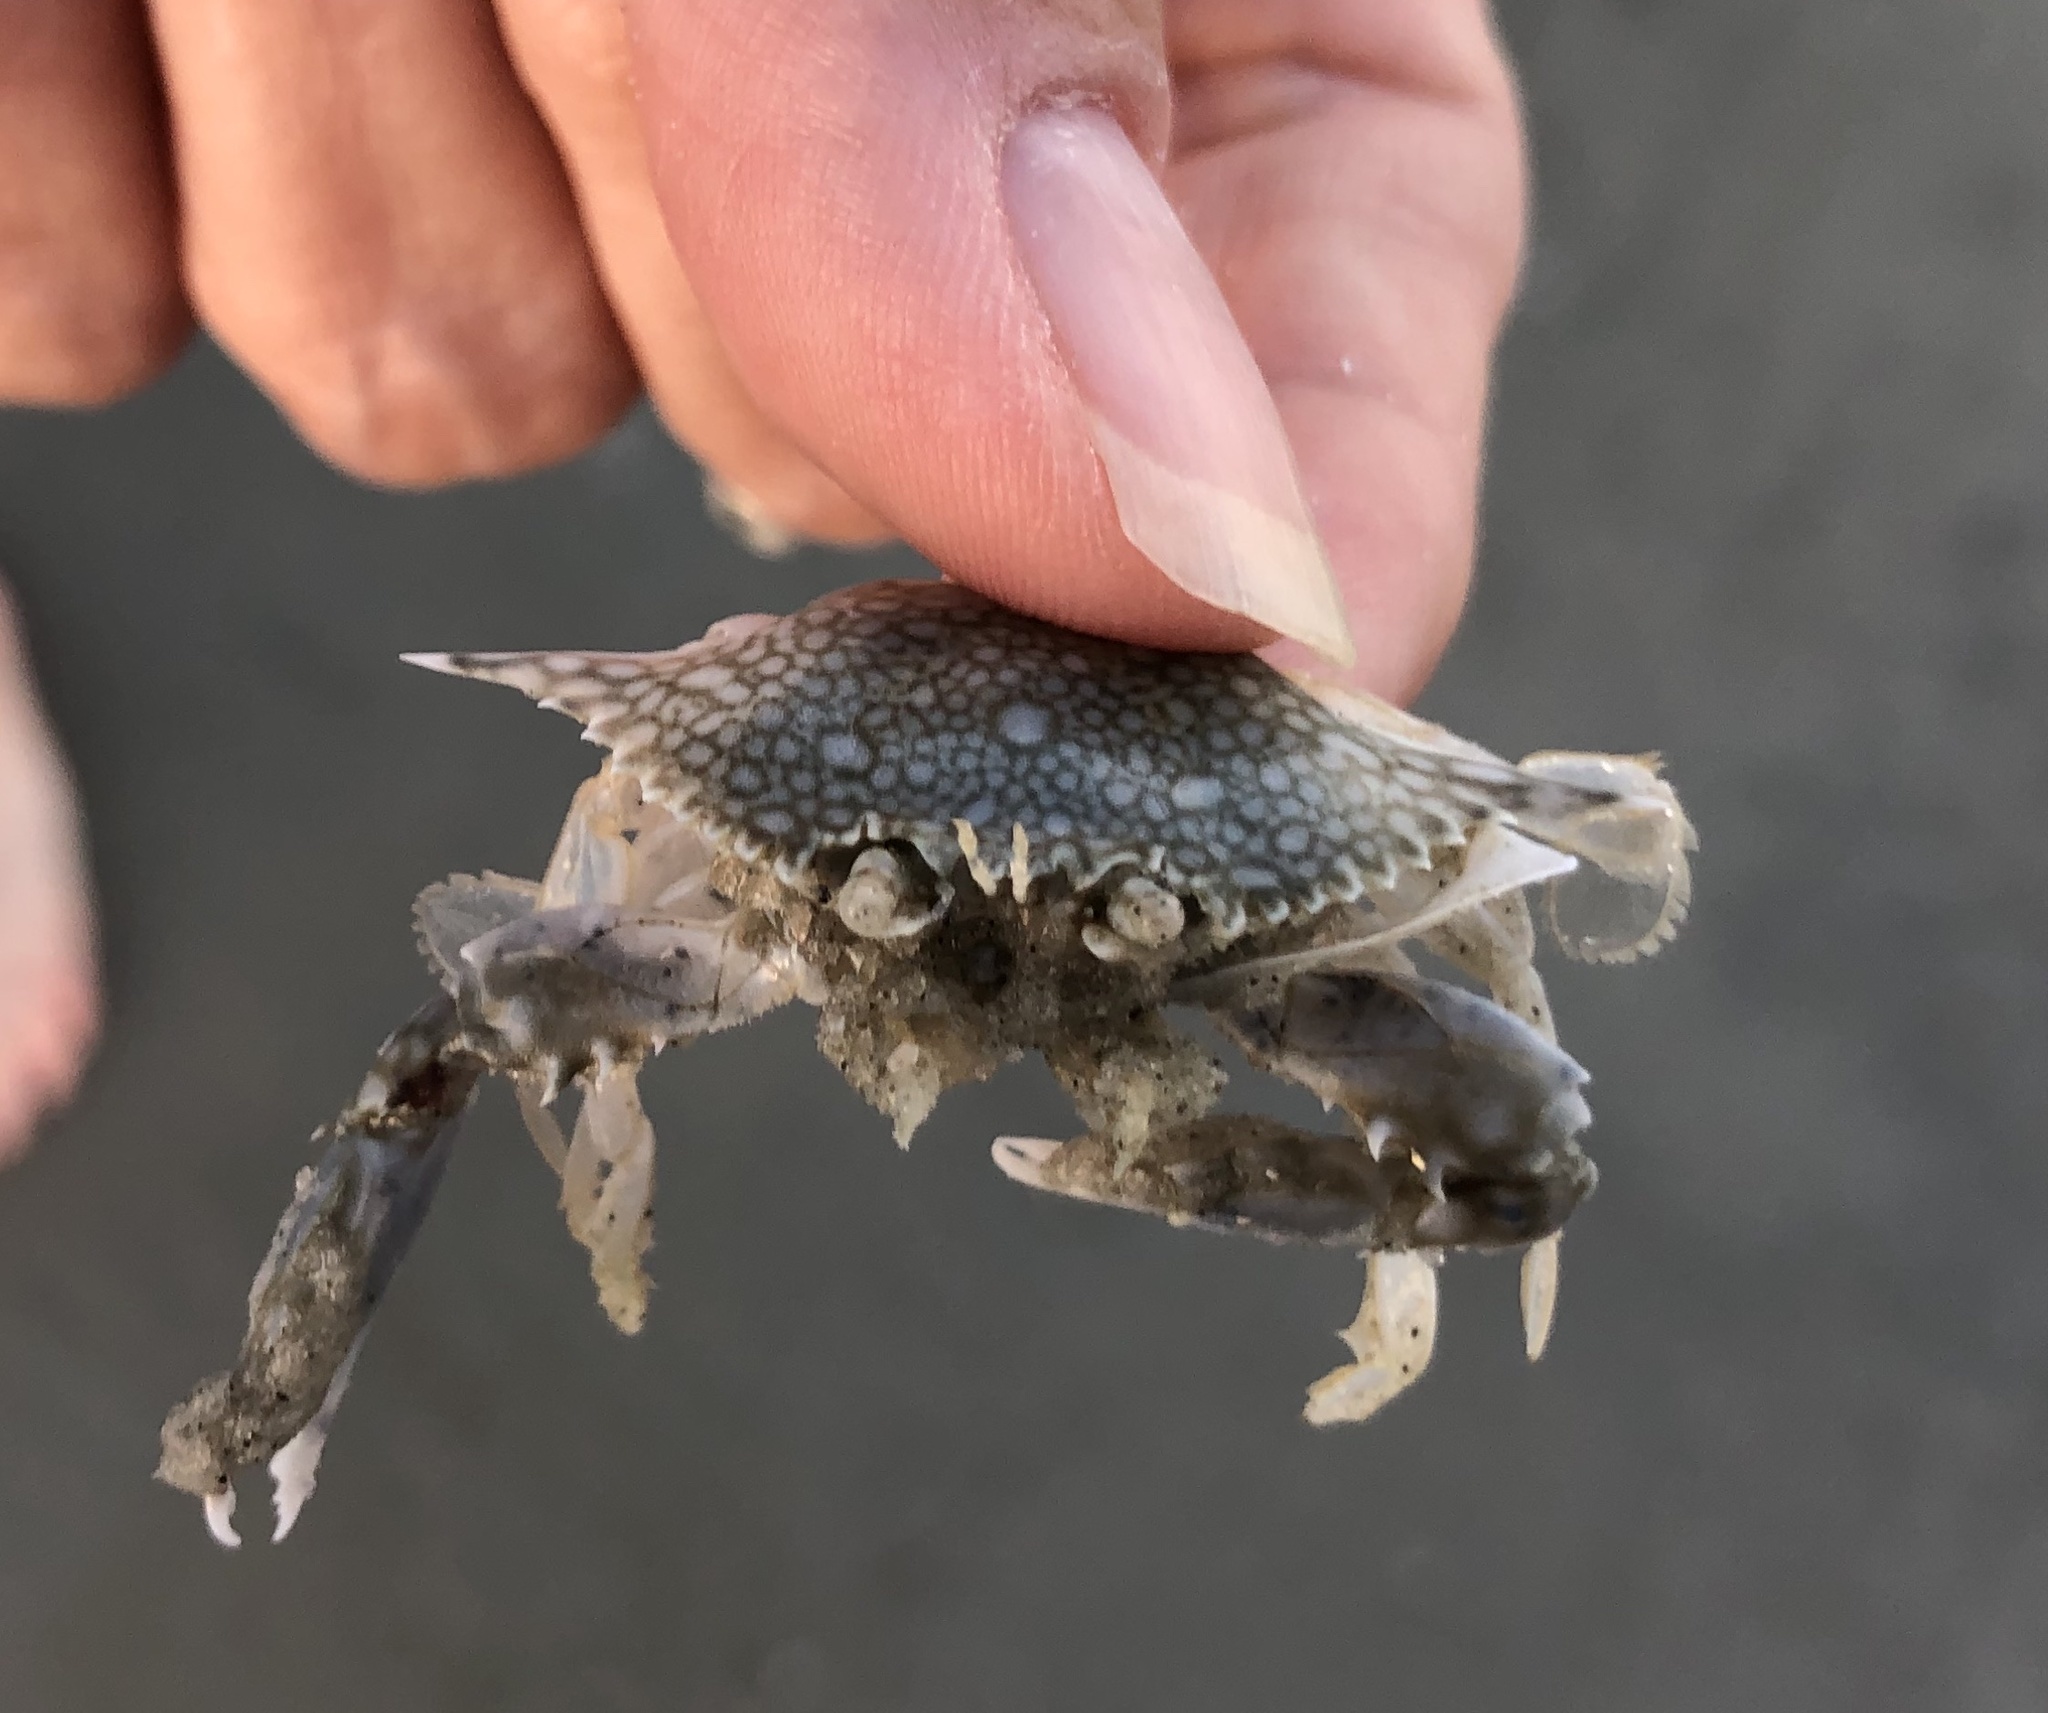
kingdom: Animalia
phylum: Arthropoda
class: Malacostraca
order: Decapoda
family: Portunidae
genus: Arenaeus
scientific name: Arenaeus cribrarius
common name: Speckled crab
